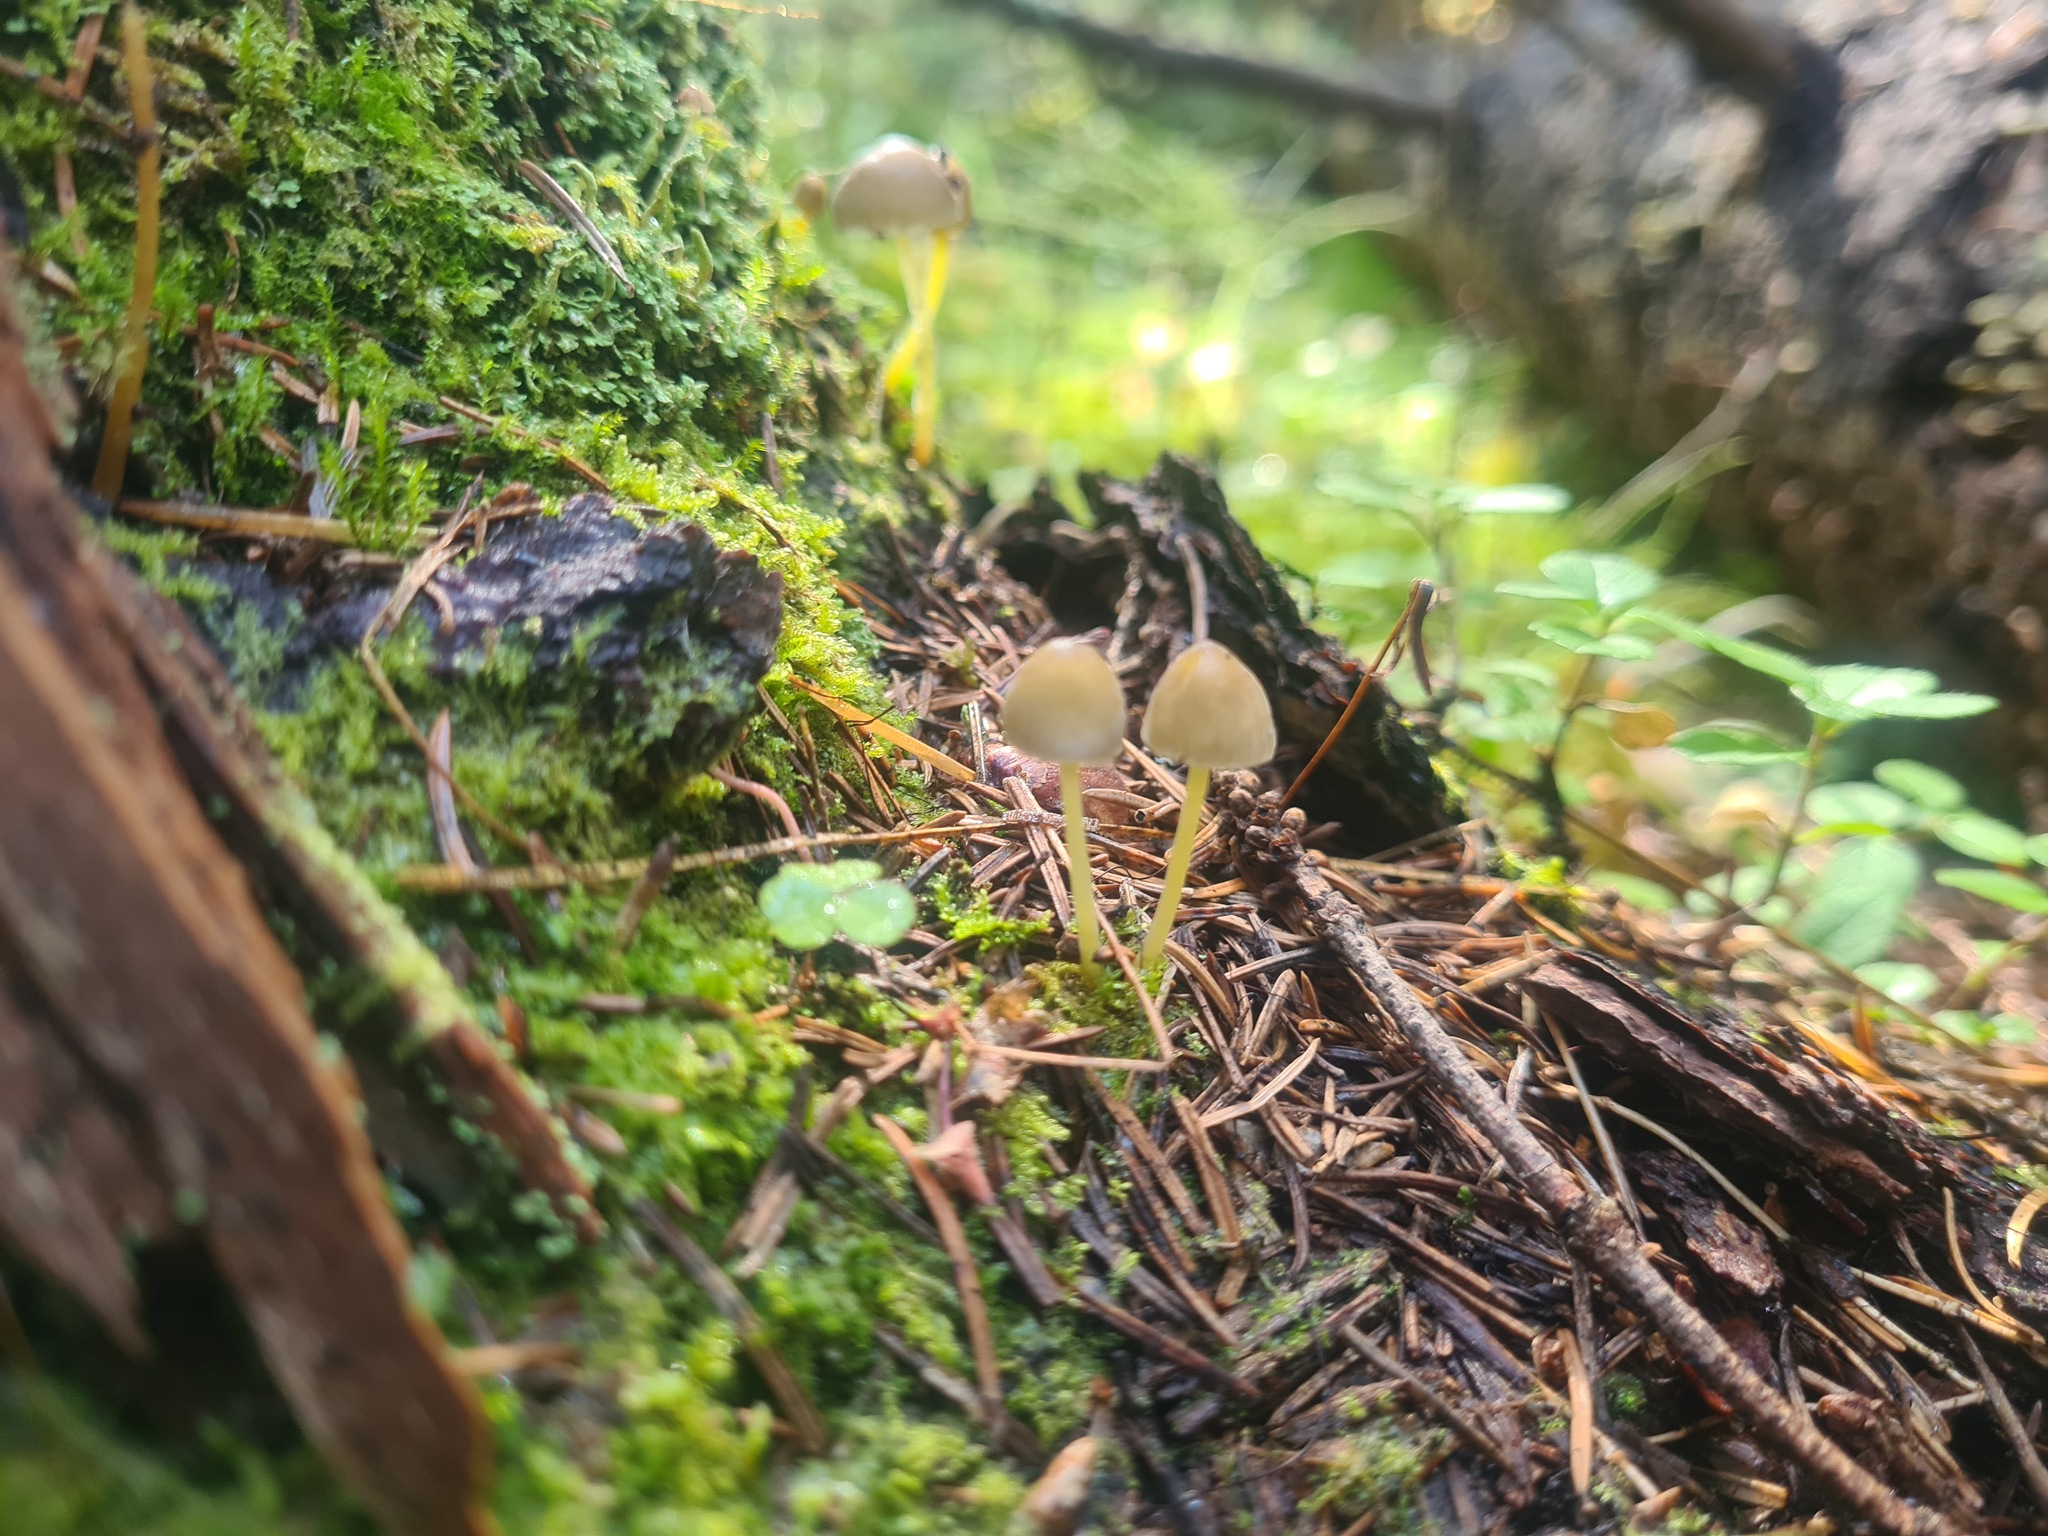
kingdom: Fungi
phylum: Basidiomycota
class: Agaricomycetes
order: Agaricales
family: Mycenaceae
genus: Mycena
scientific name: Mycena epipterygia
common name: Yellowleg bonnet
